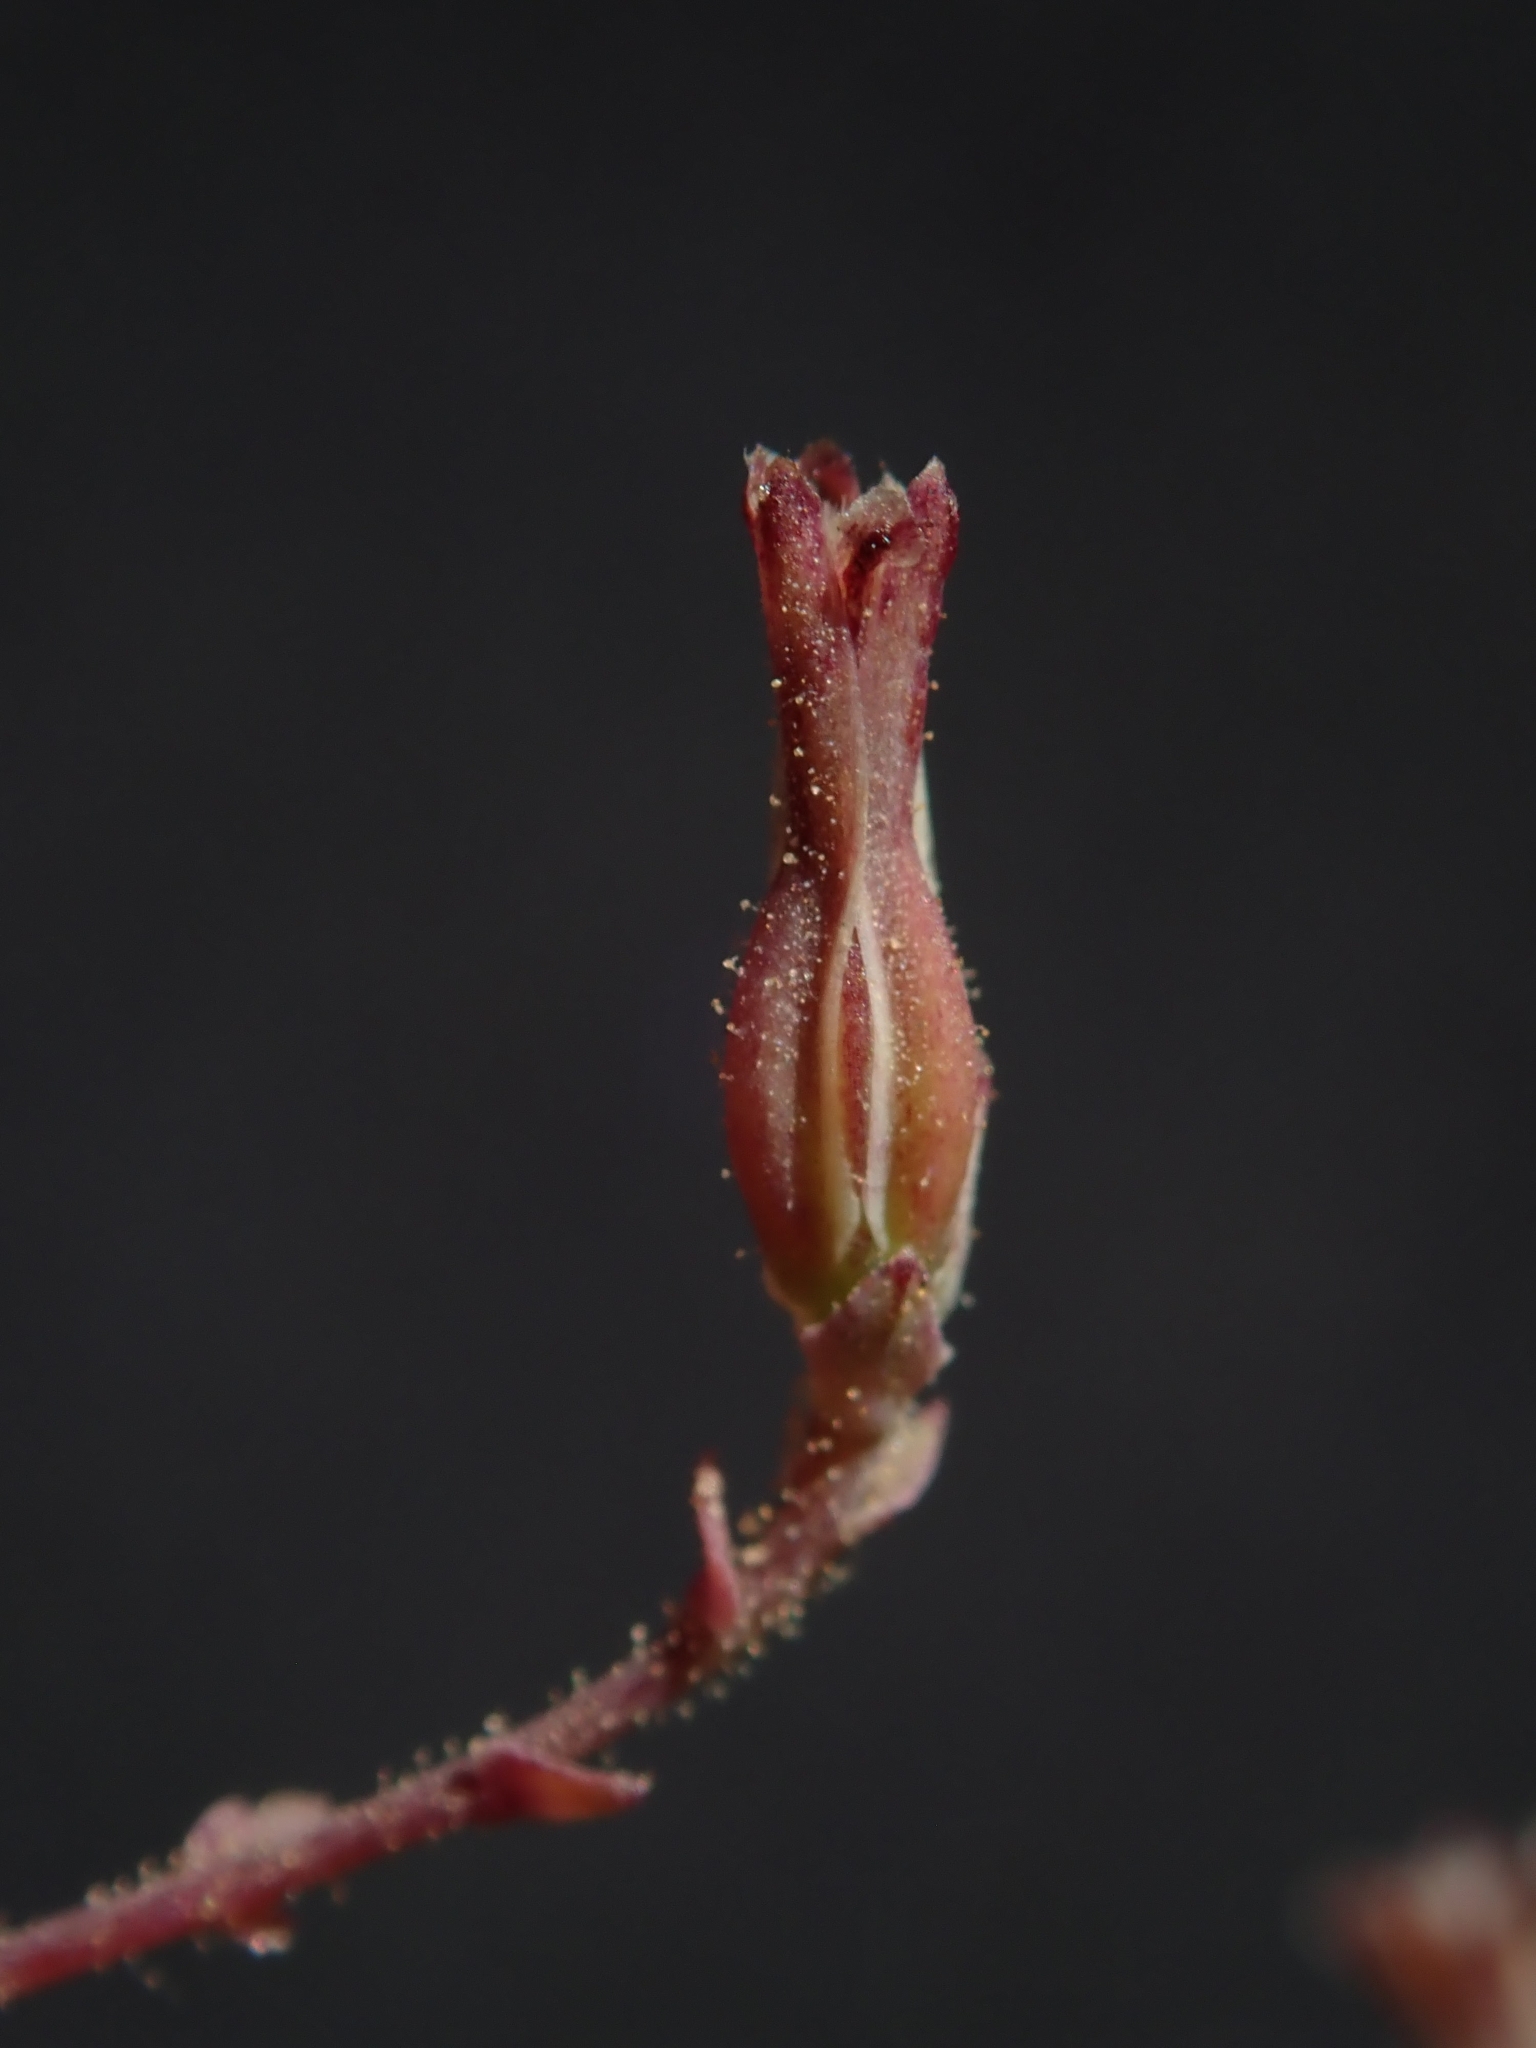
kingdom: Plantae
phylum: Tracheophyta
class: Magnoliopsida
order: Asterales
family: Asteraceae
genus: Stephanomeria
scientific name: Stephanomeria exigua
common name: Small wirelettuce
